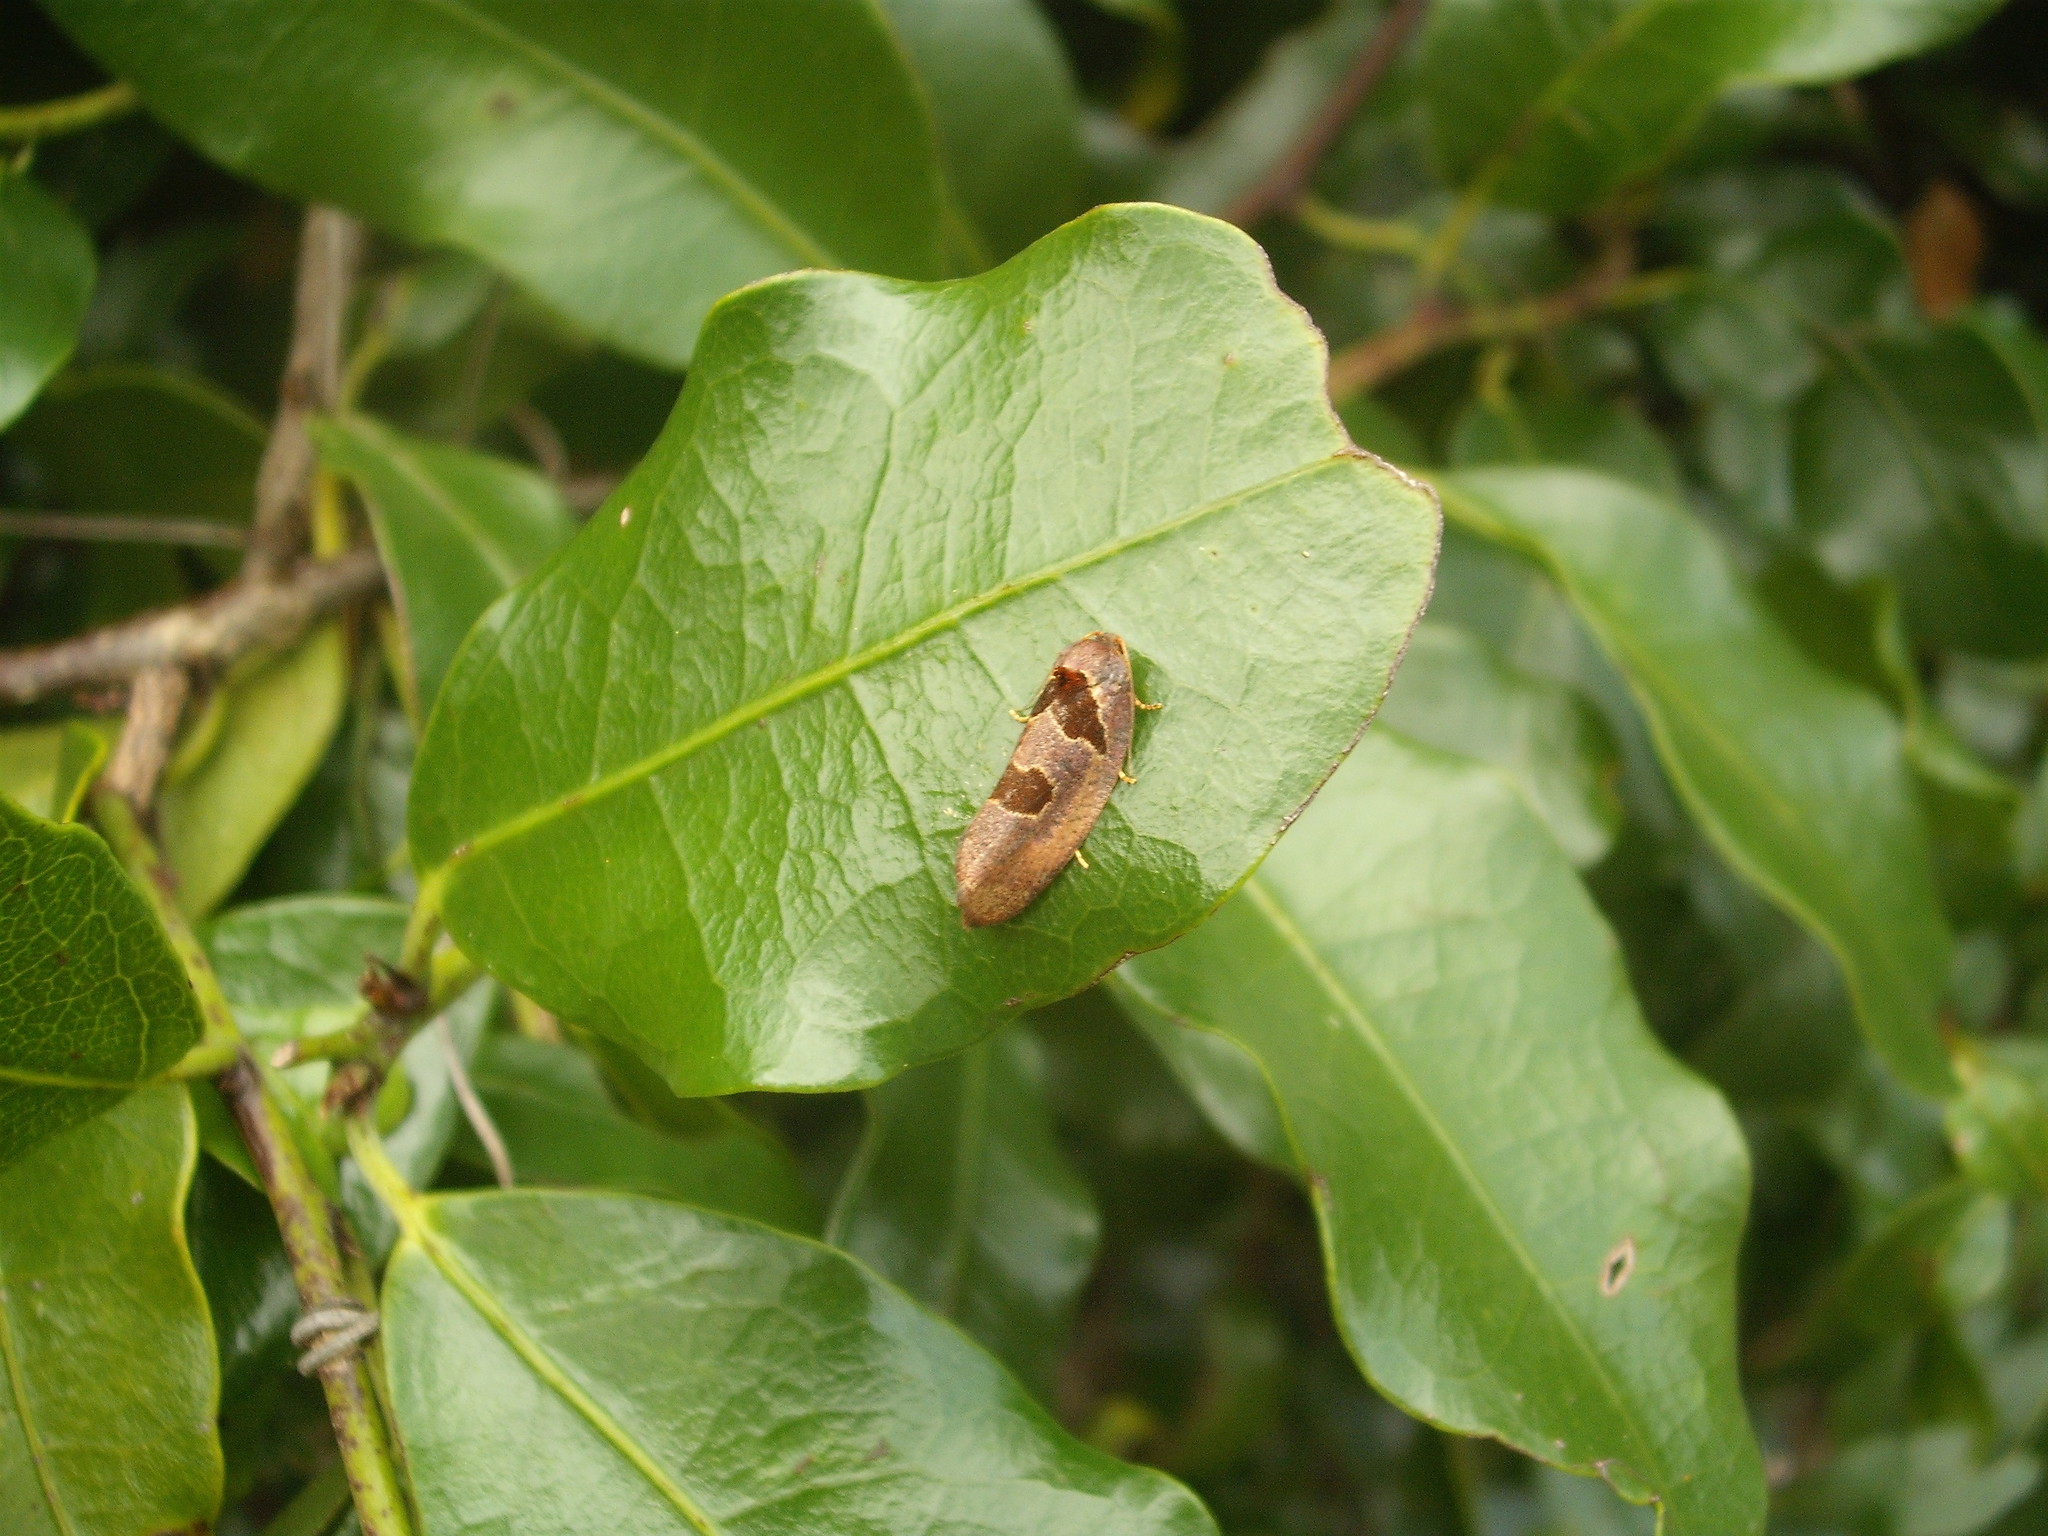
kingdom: Animalia
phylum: Arthropoda
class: Insecta
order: Lepidoptera
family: Tortricidae
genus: Ochetarcha
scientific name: Ochetarcha
